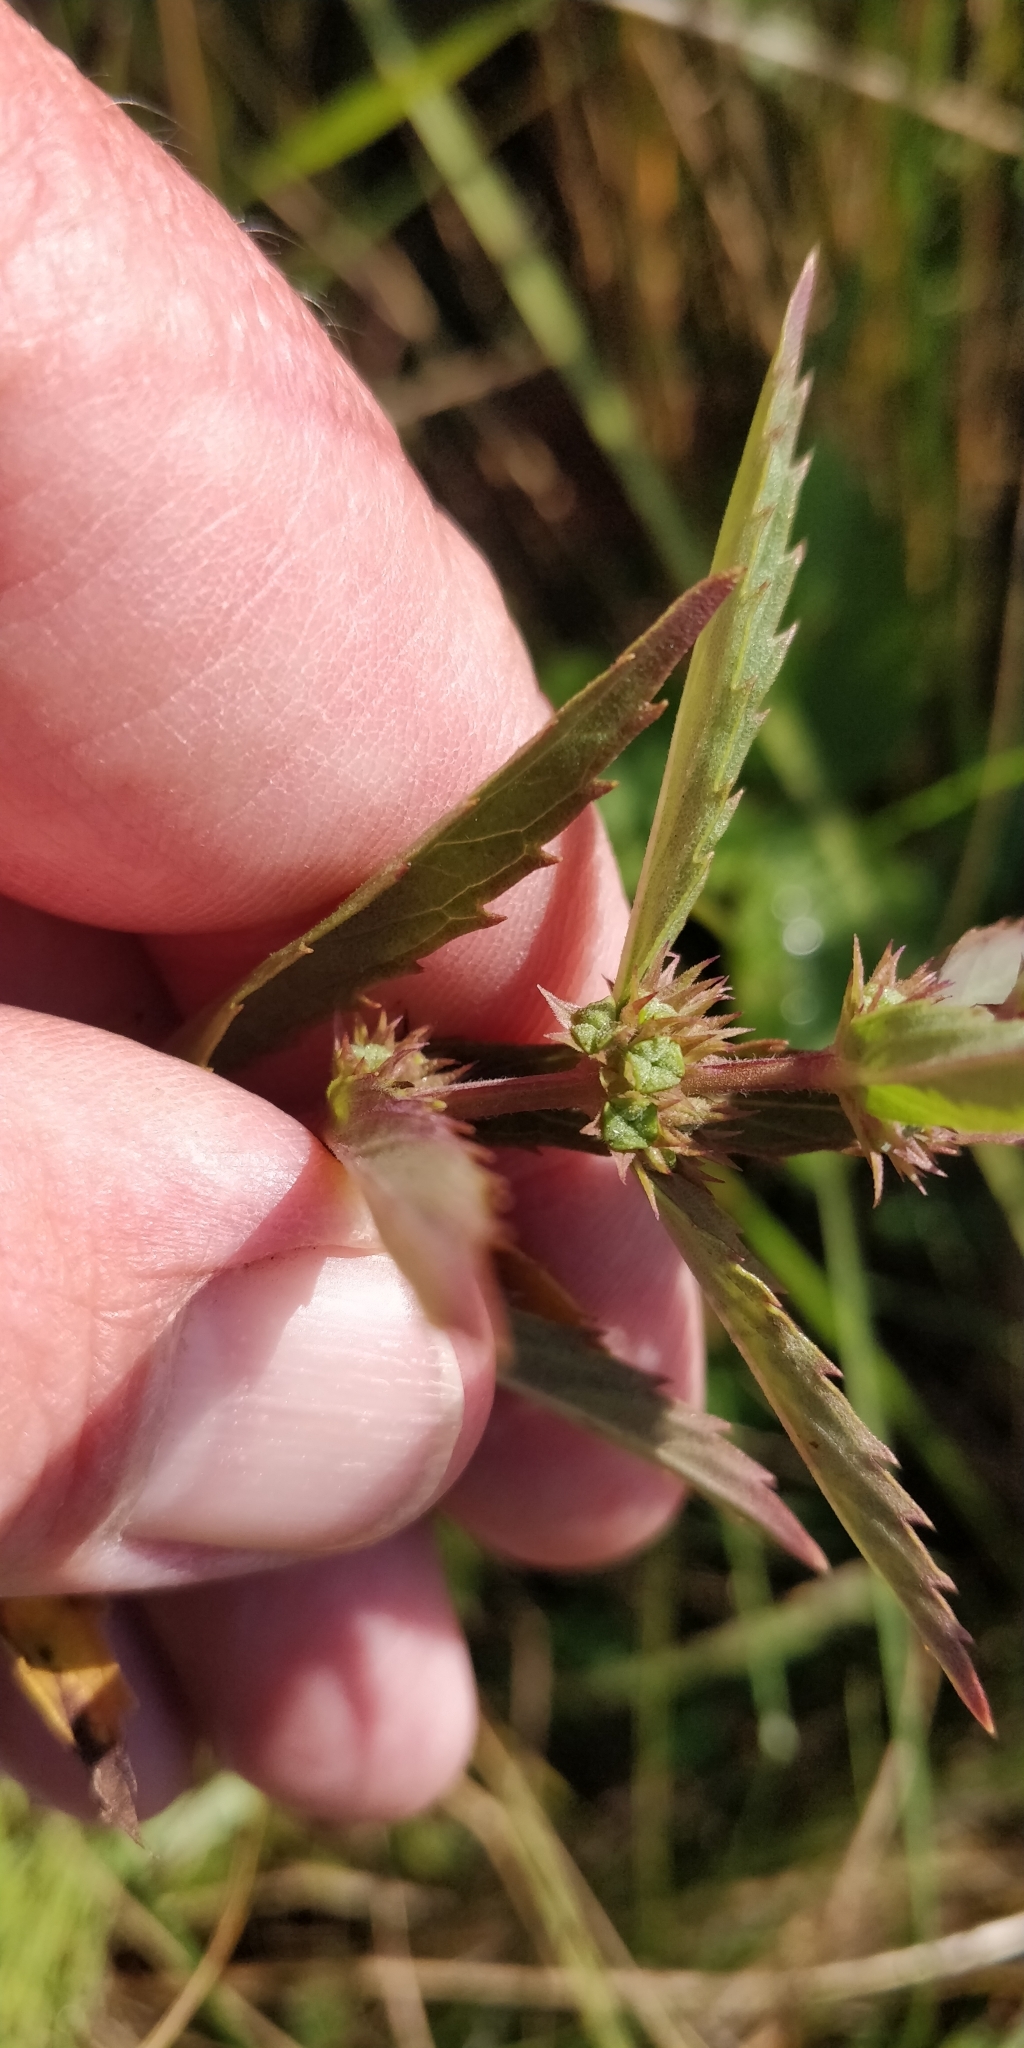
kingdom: Plantae
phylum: Tracheophyta
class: Magnoliopsida
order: Lamiales
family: Lamiaceae
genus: Lycopus
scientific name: Lycopus uniflorus
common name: Northern bugleweed
